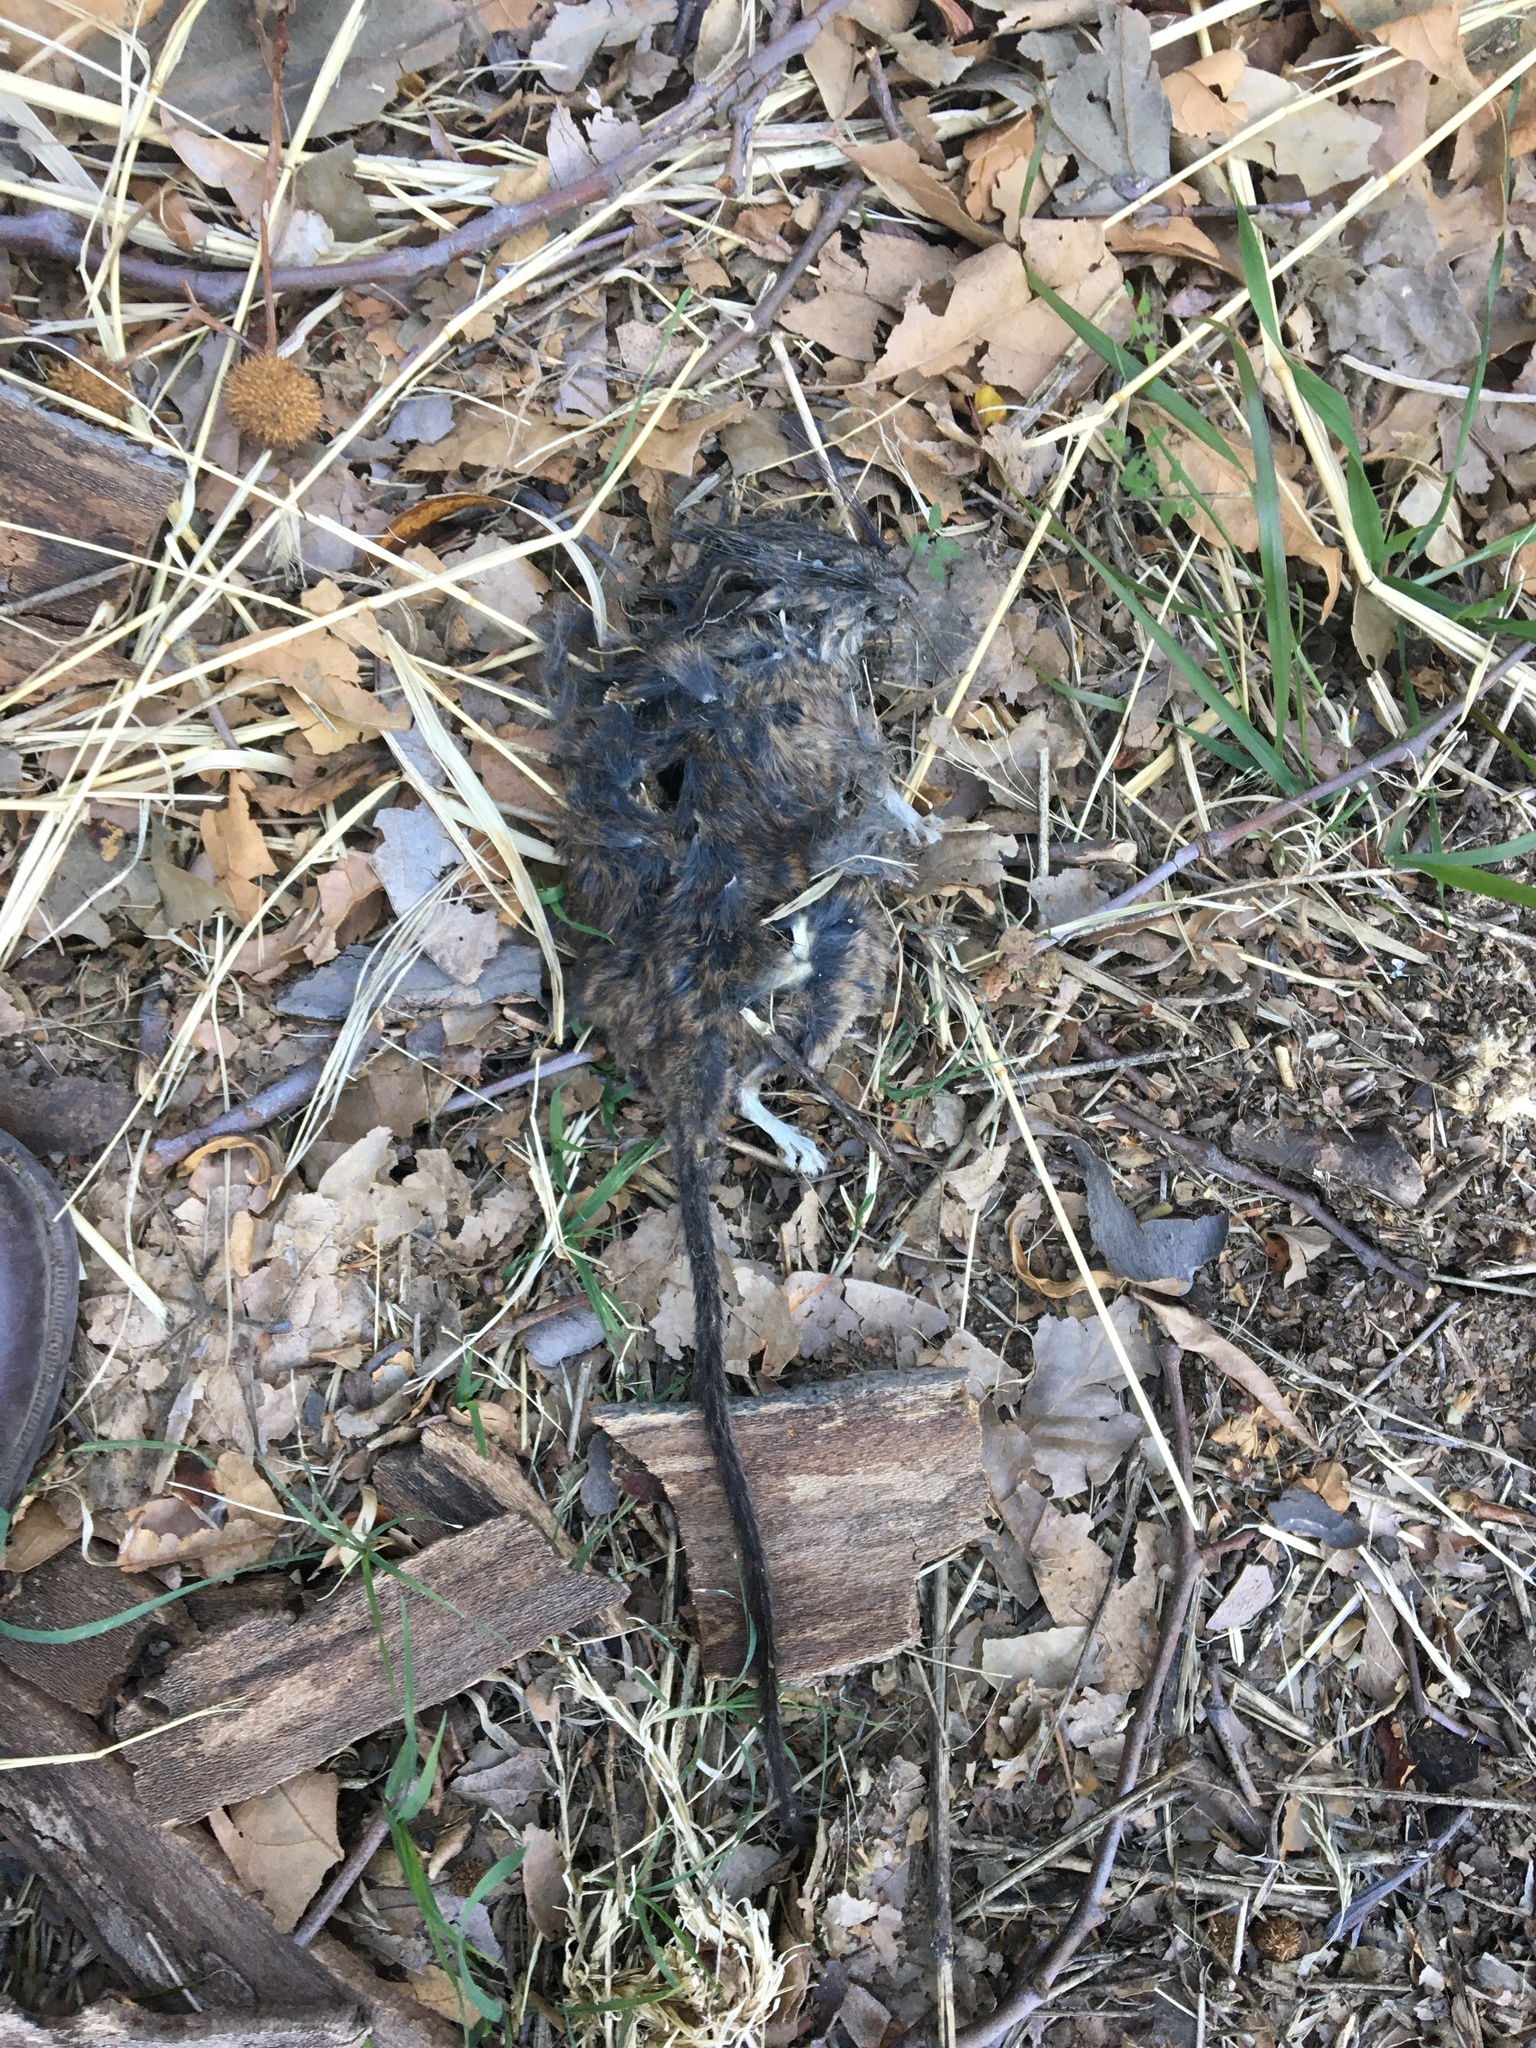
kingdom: Animalia
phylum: Chordata
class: Mammalia
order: Rodentia
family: Cricetidae
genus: Neotoma
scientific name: Neotoma macrotis
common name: Big-eared woodrat
